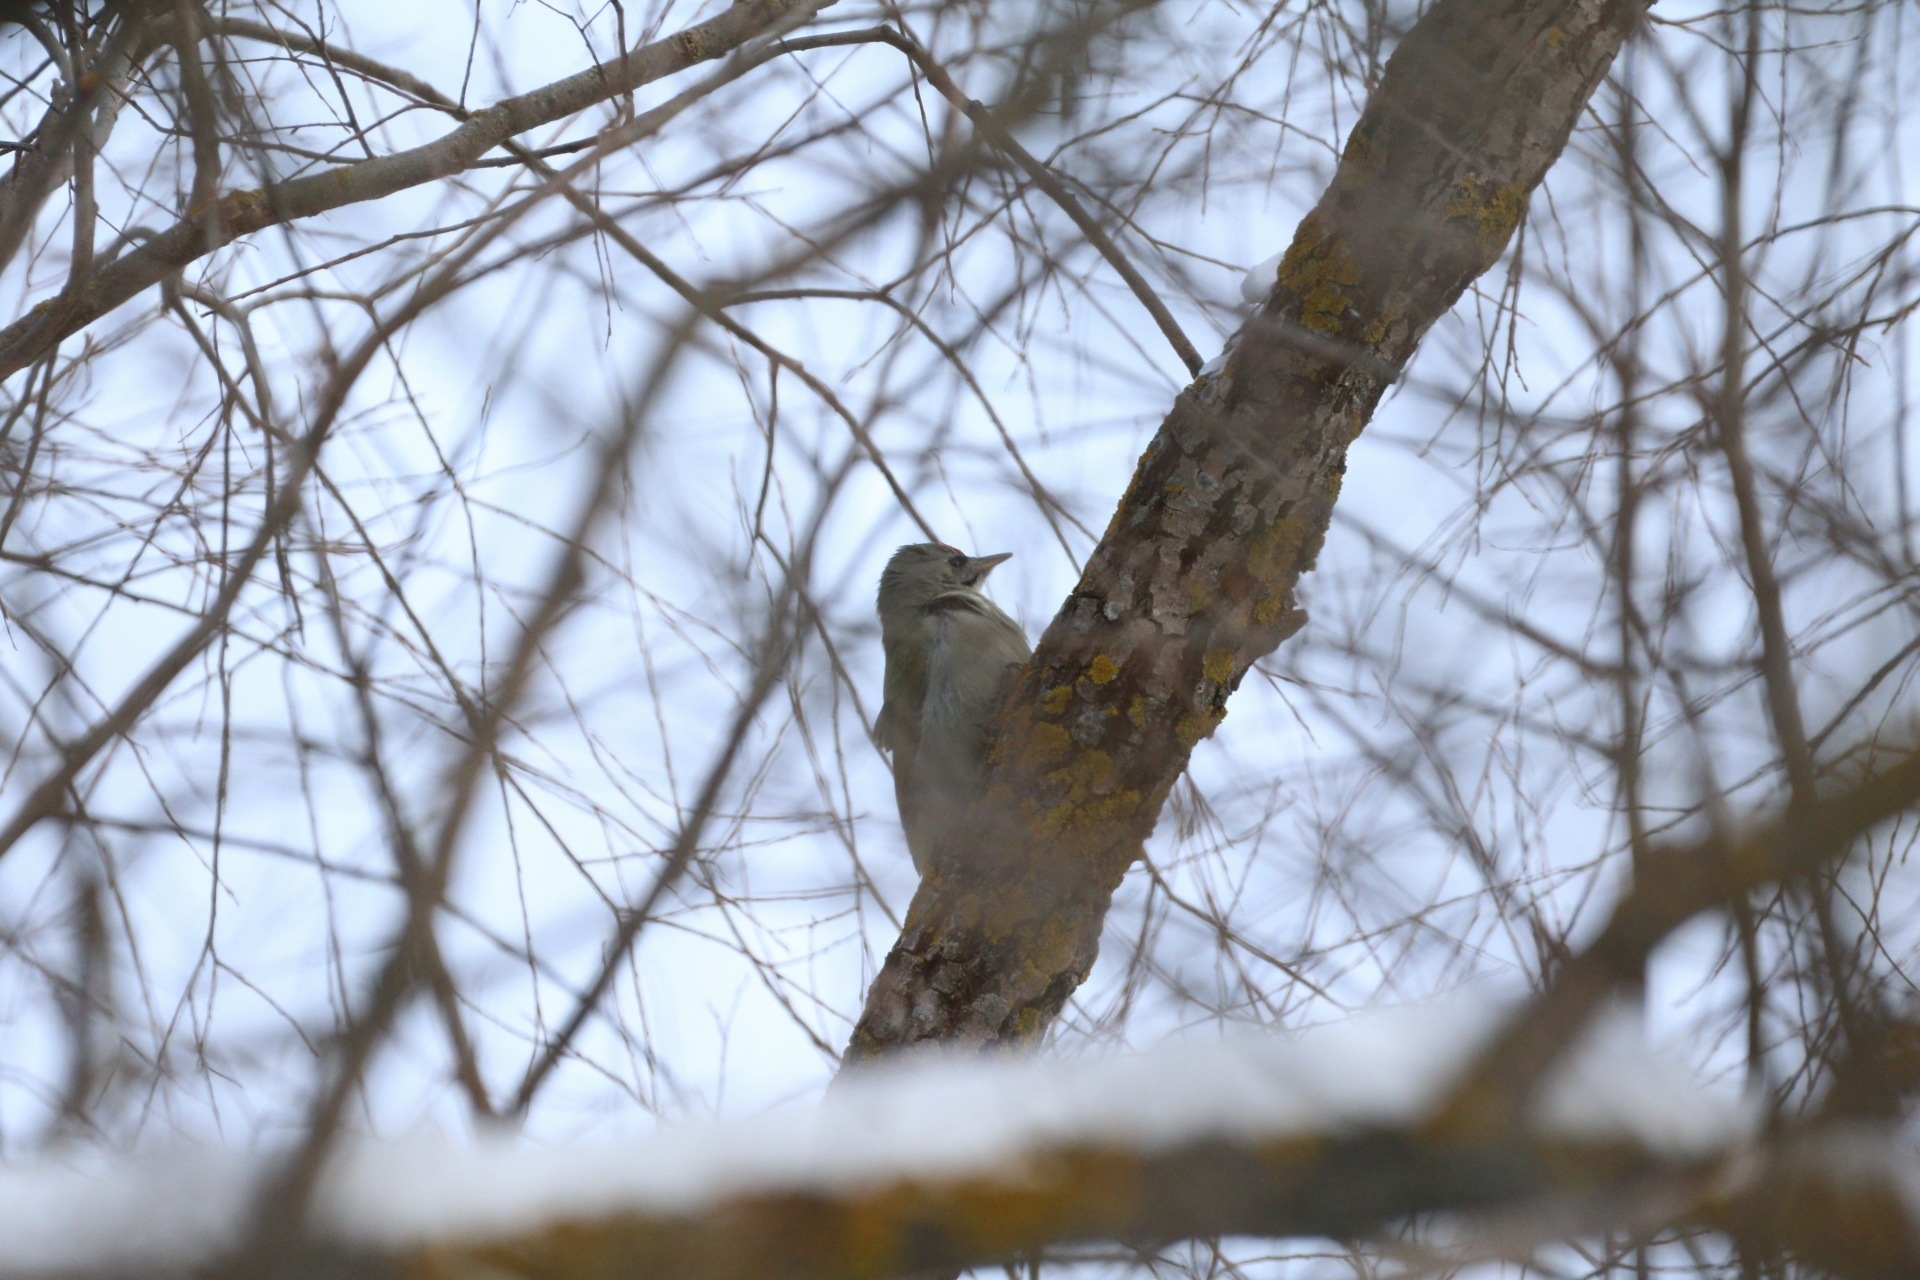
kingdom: Animalia
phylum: Chordata
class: Aves
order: Piciformes
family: Picidae
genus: Picus
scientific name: Picus canus
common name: Grey-headed woodpecker
